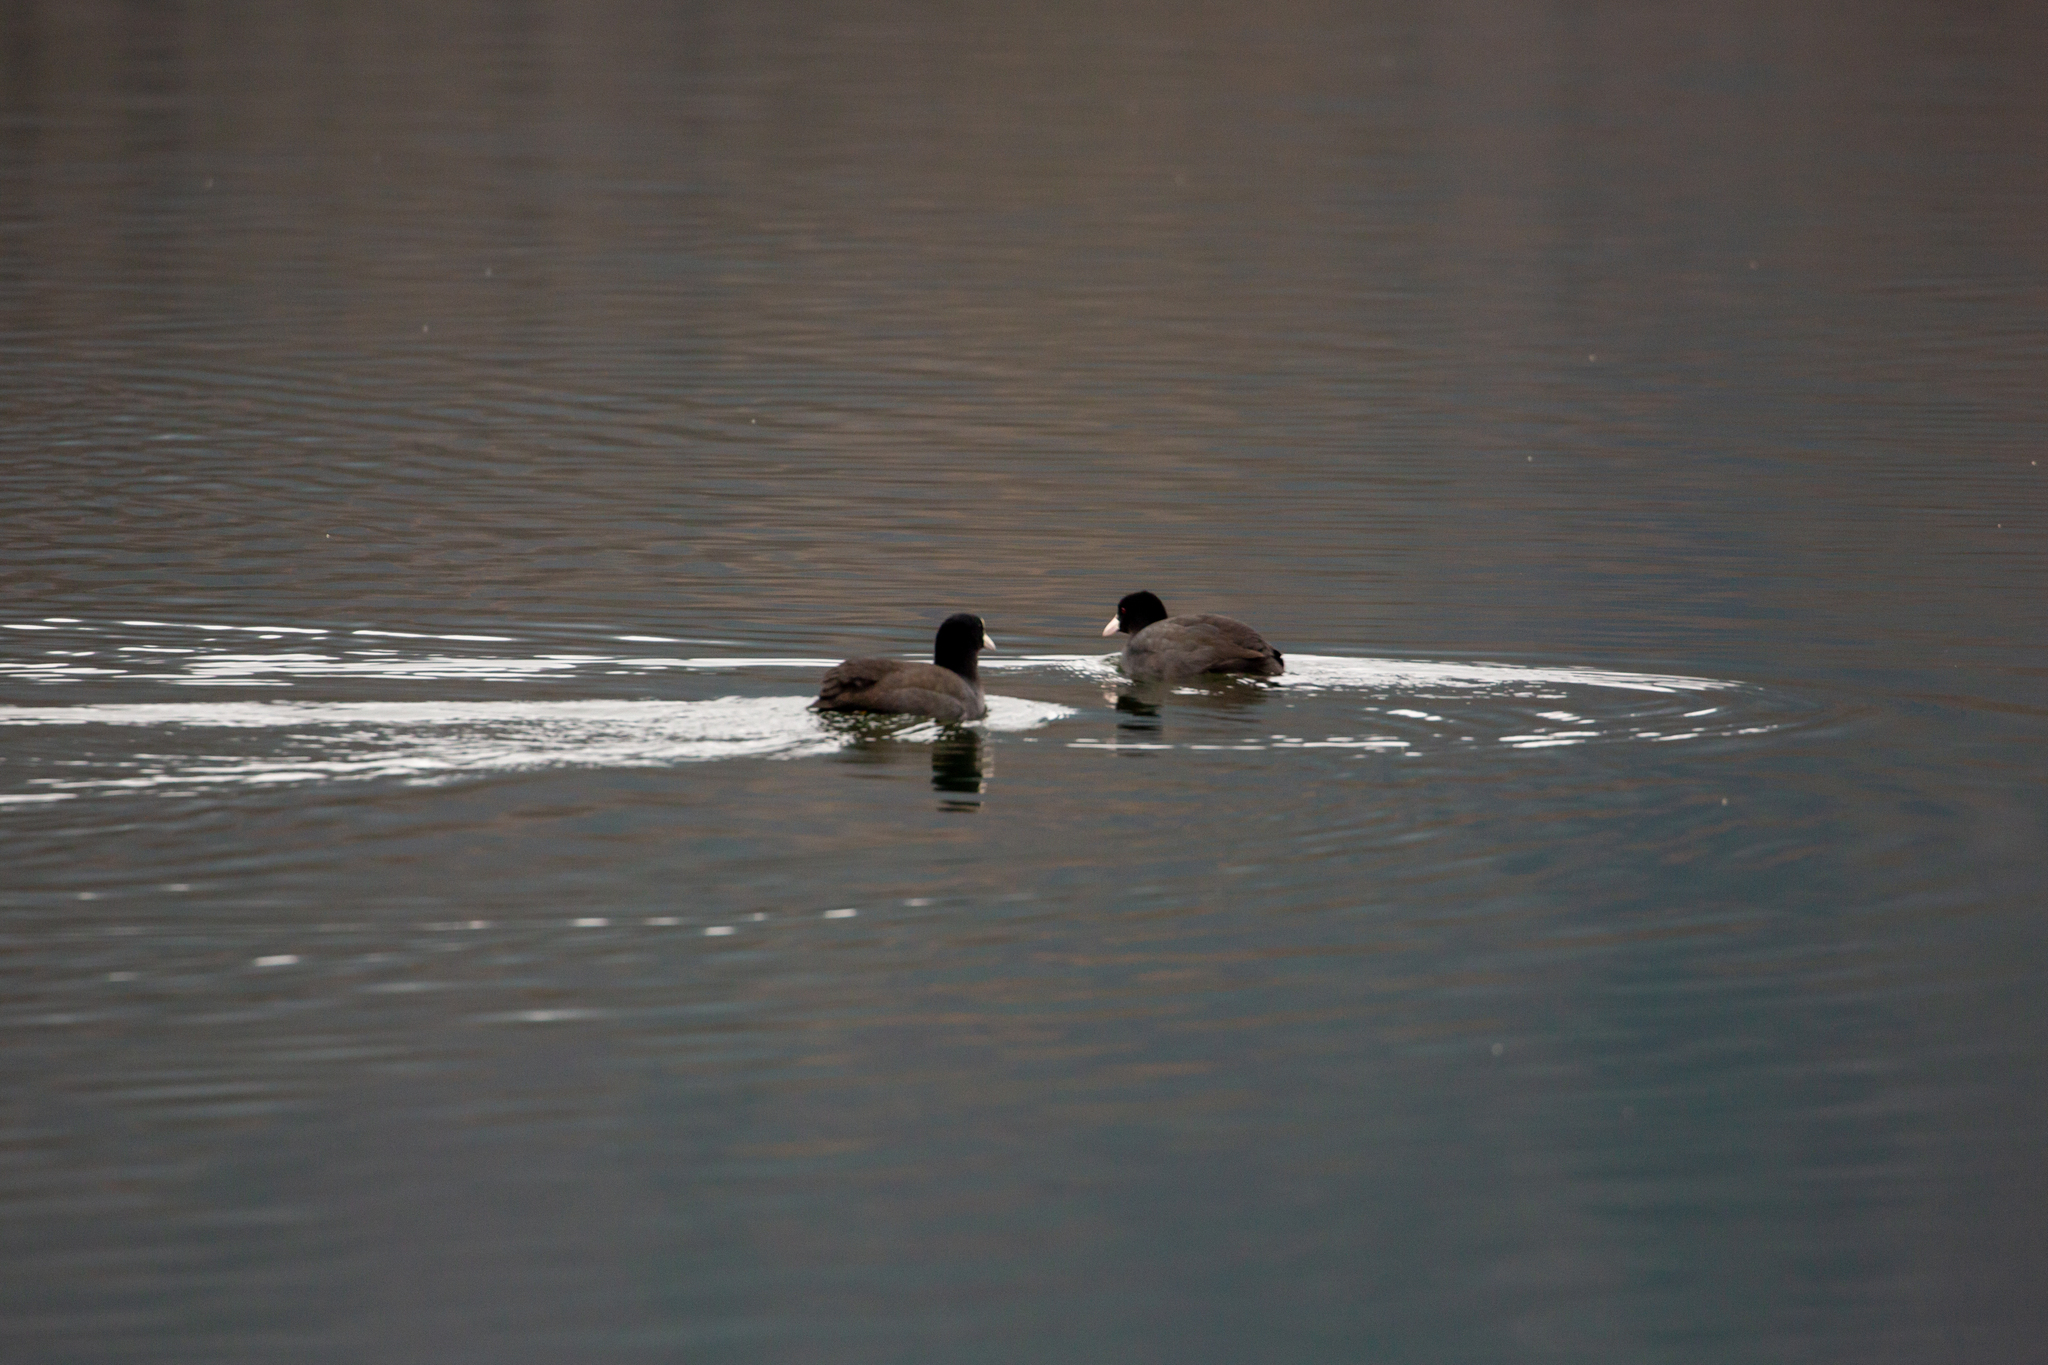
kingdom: Animalia
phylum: Chordata
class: Aves
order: Gruiformes
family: Rallidae
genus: Fulica
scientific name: Fulica atra
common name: Eurasian coot
